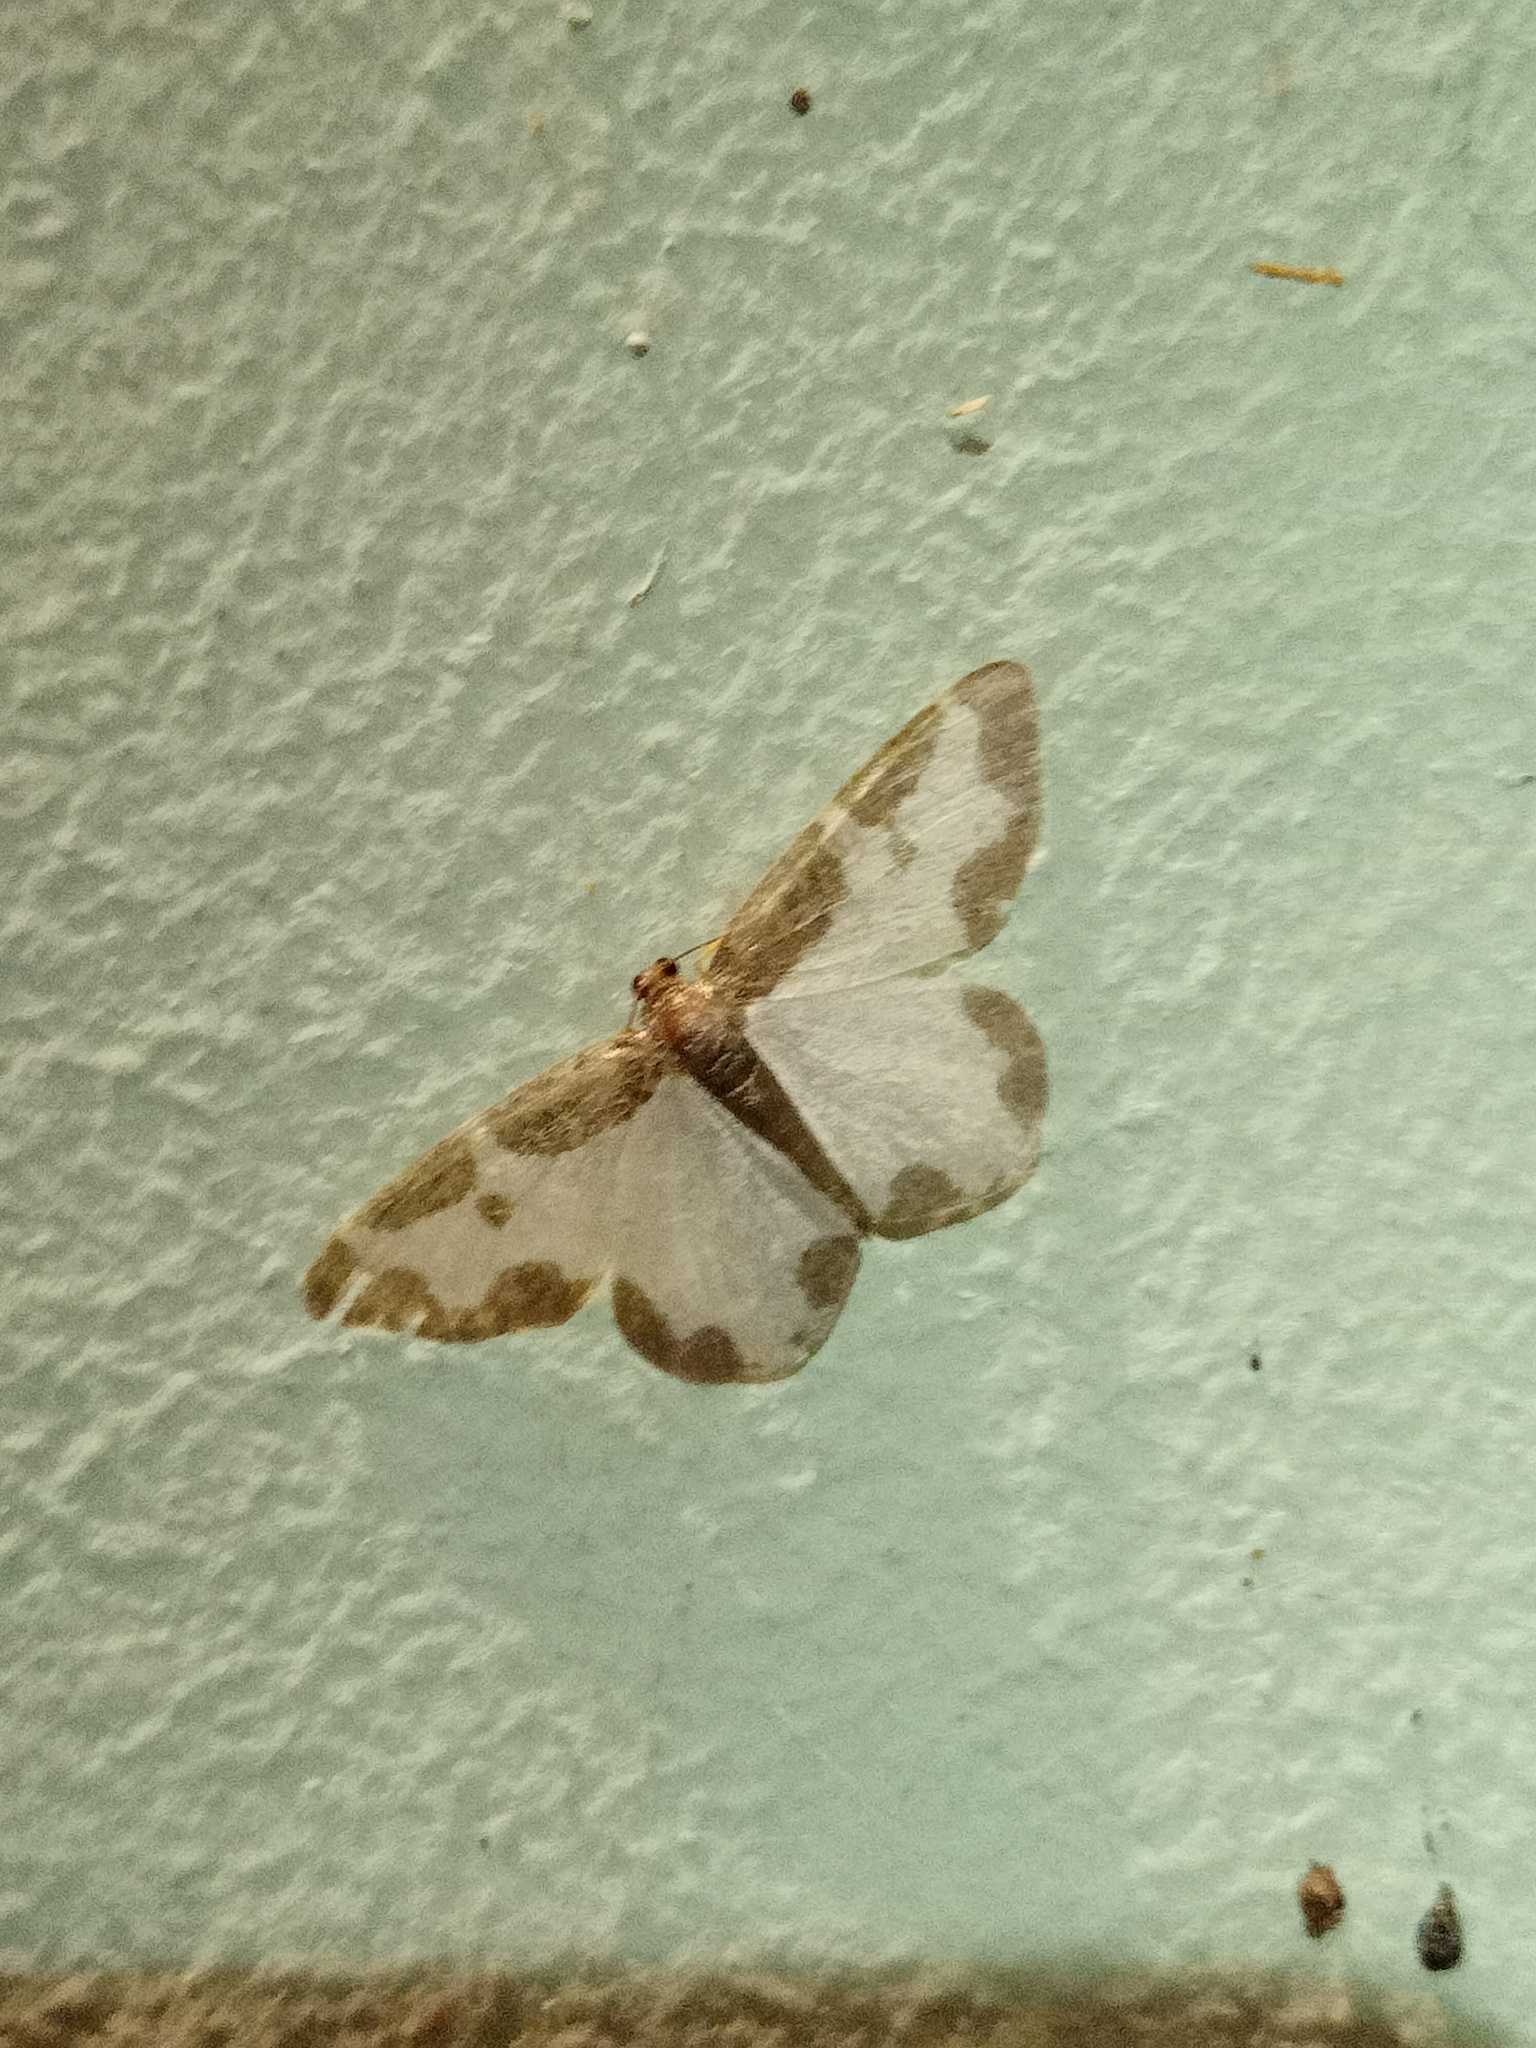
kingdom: Animalia
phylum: Arthropoda
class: Insecta
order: Lepidoptera
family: Geometridae
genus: Lomaspilis
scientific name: Lomaspilis marginata
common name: Clouded border
